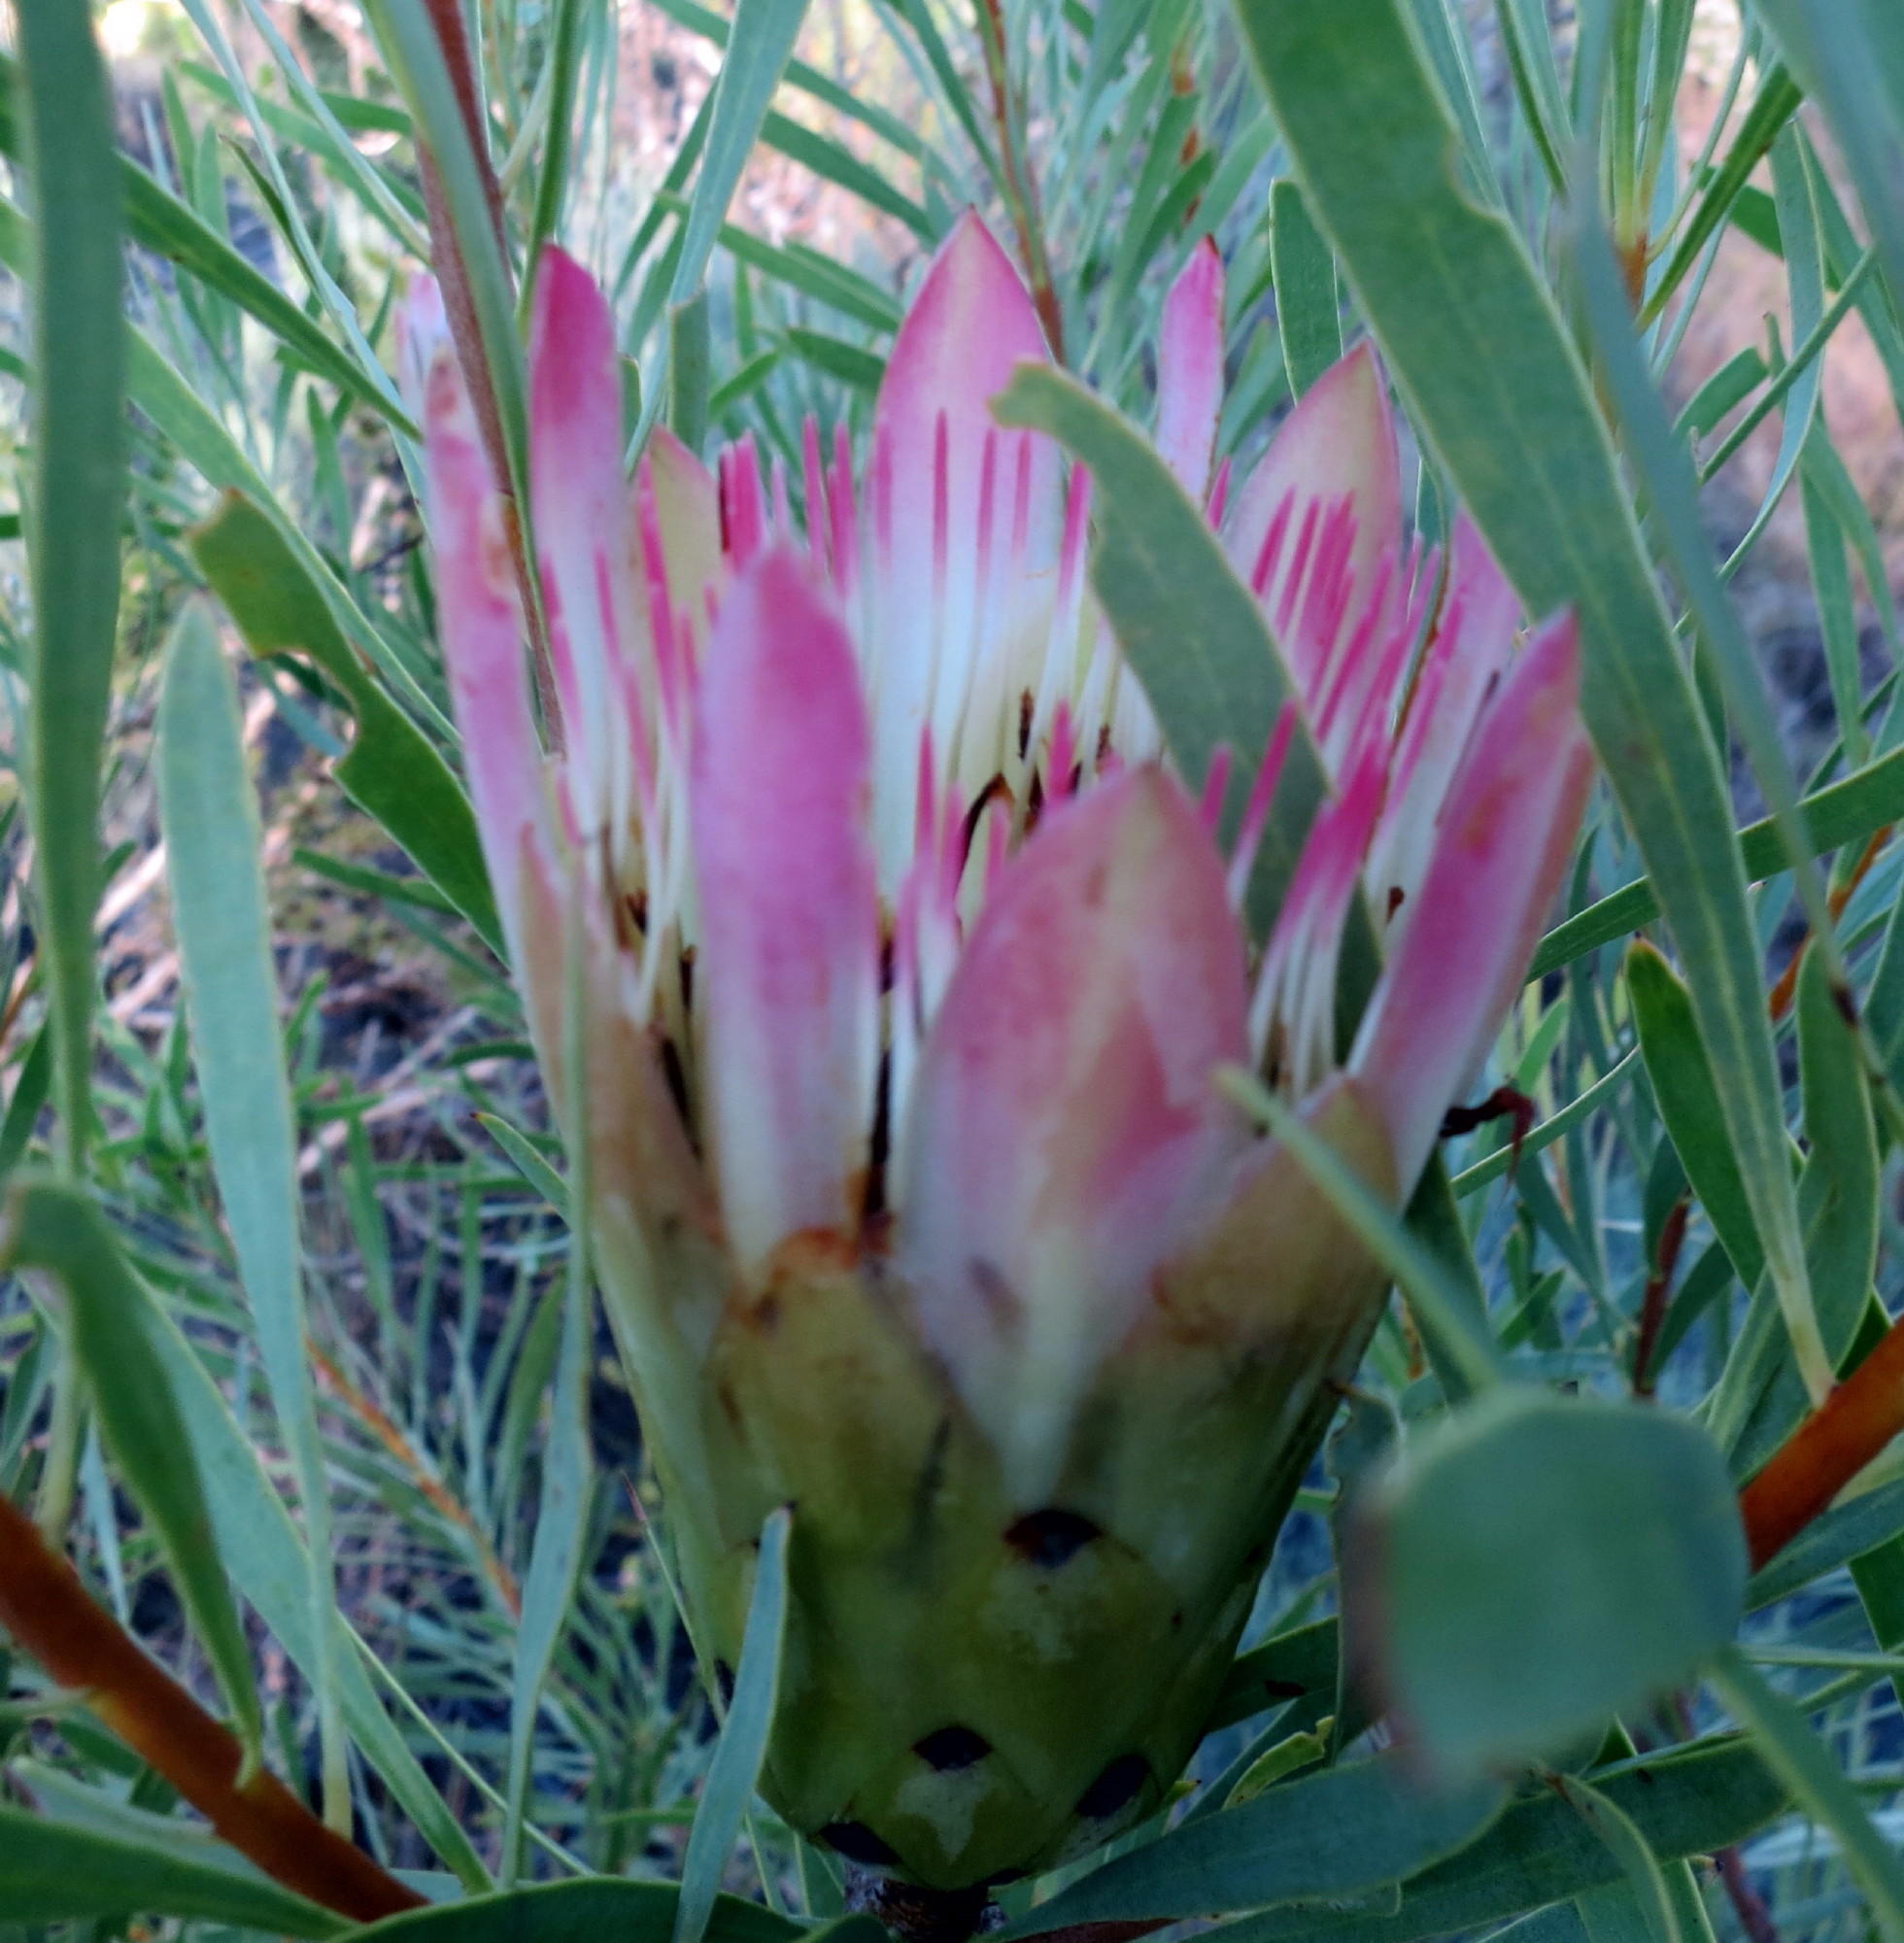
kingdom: Plantae
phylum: Tracheophyta
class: Magnoliopsida
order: Proteales
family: Proteaceae
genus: Protea
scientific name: Protea repens
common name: Sugarbush
